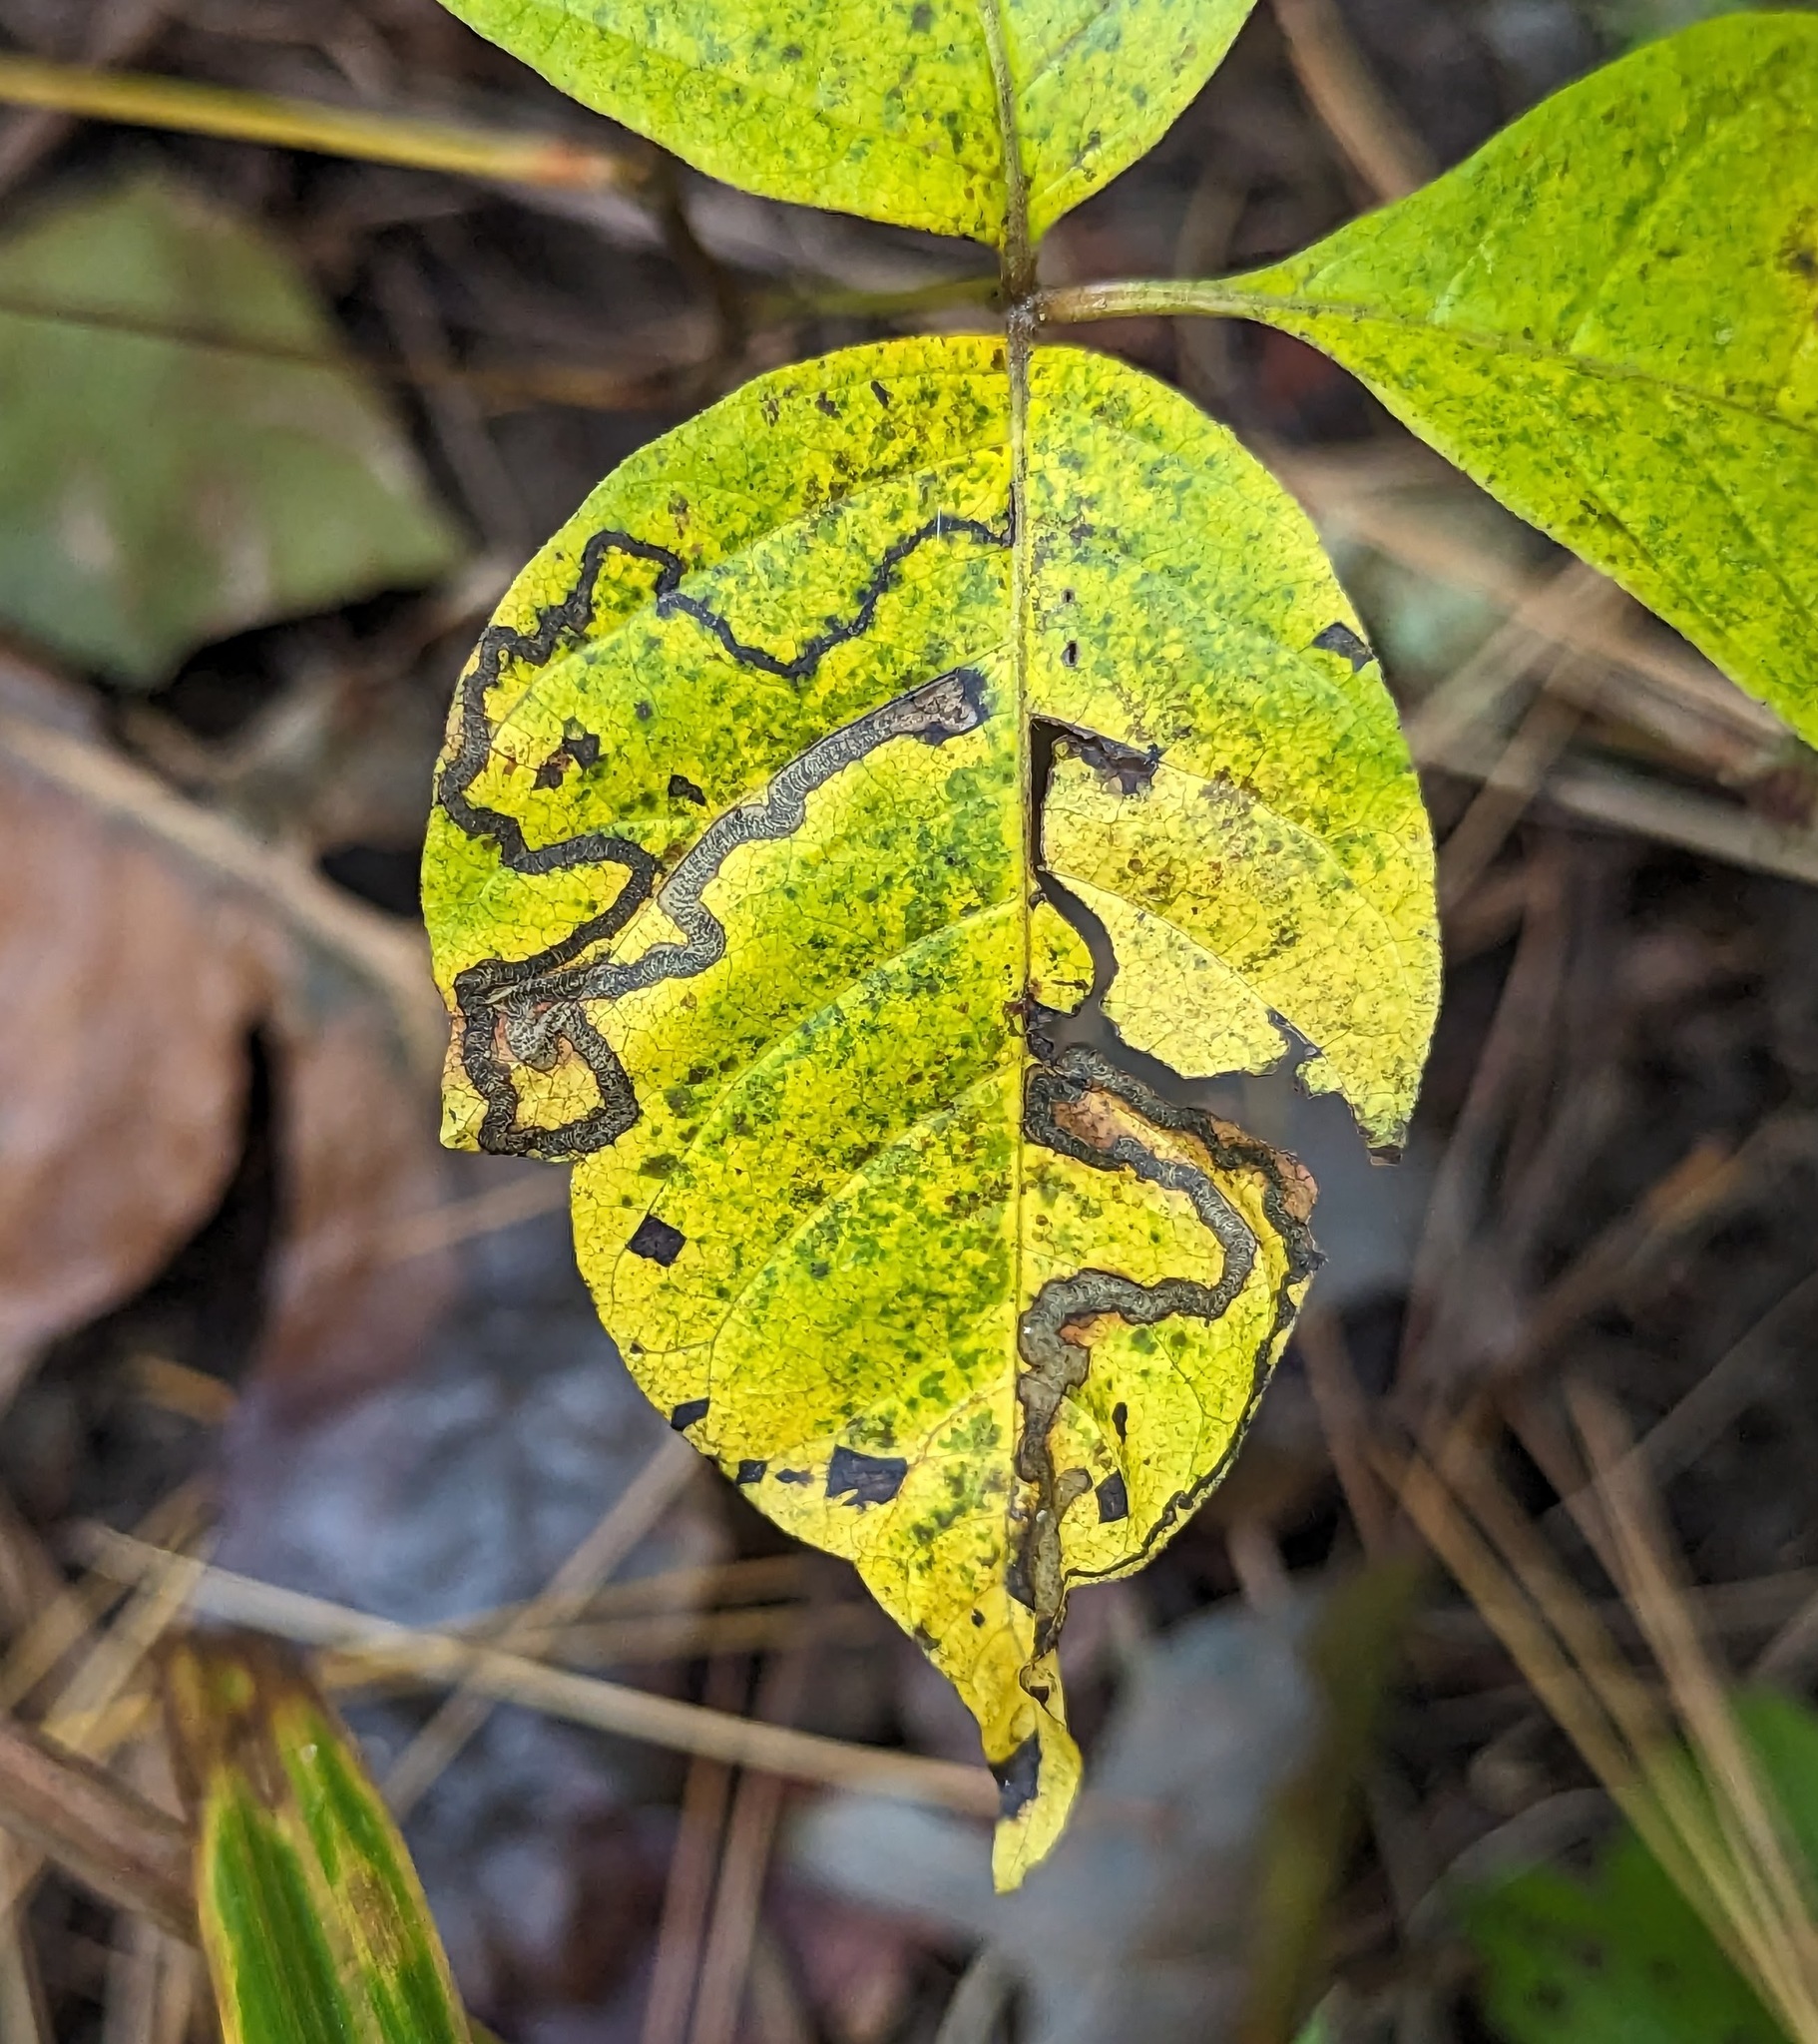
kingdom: Animalia
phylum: Arthropoda
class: Insecta
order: Lepidoptera
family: Nepticulidae
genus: Stigmella
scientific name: Stigmella rhoifoliella
